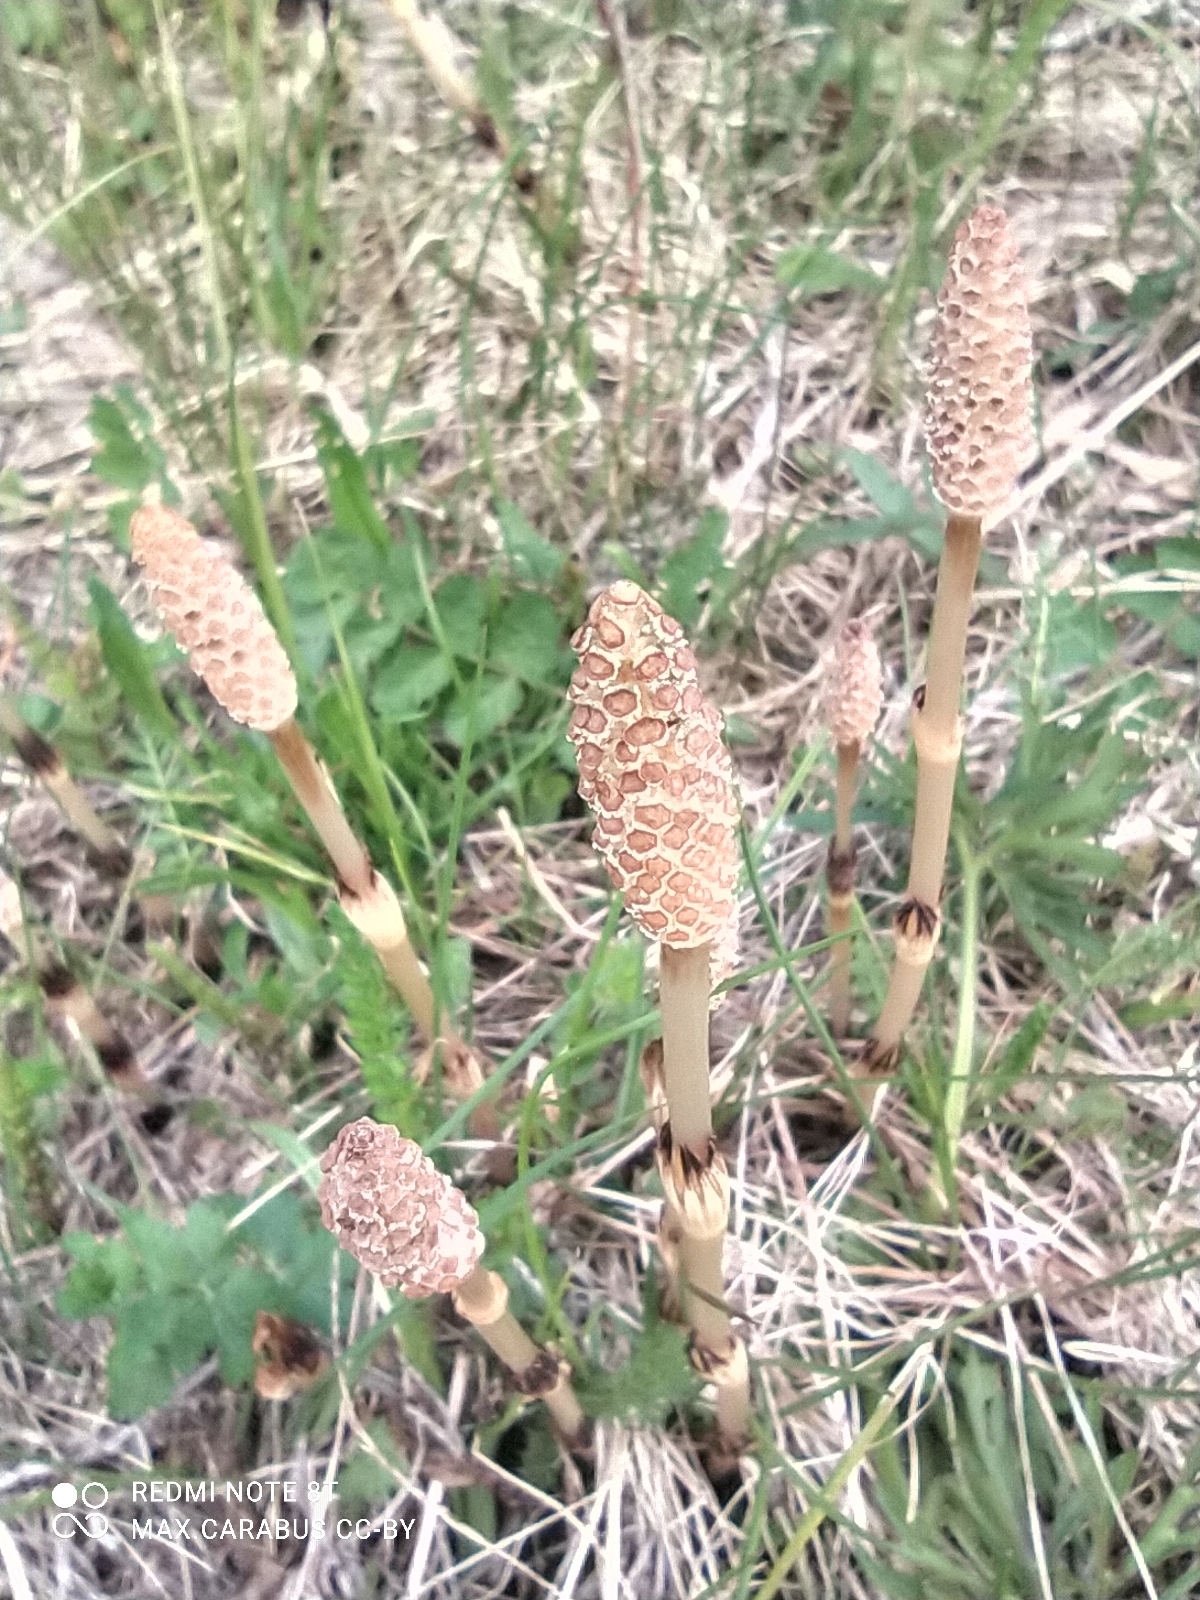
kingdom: Plantae
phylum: Tracheophyta
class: Polypodiopsida
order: Equisetales
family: Equisetaceae
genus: Equisetum
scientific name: Equisetum arvense
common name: Field horsetail
